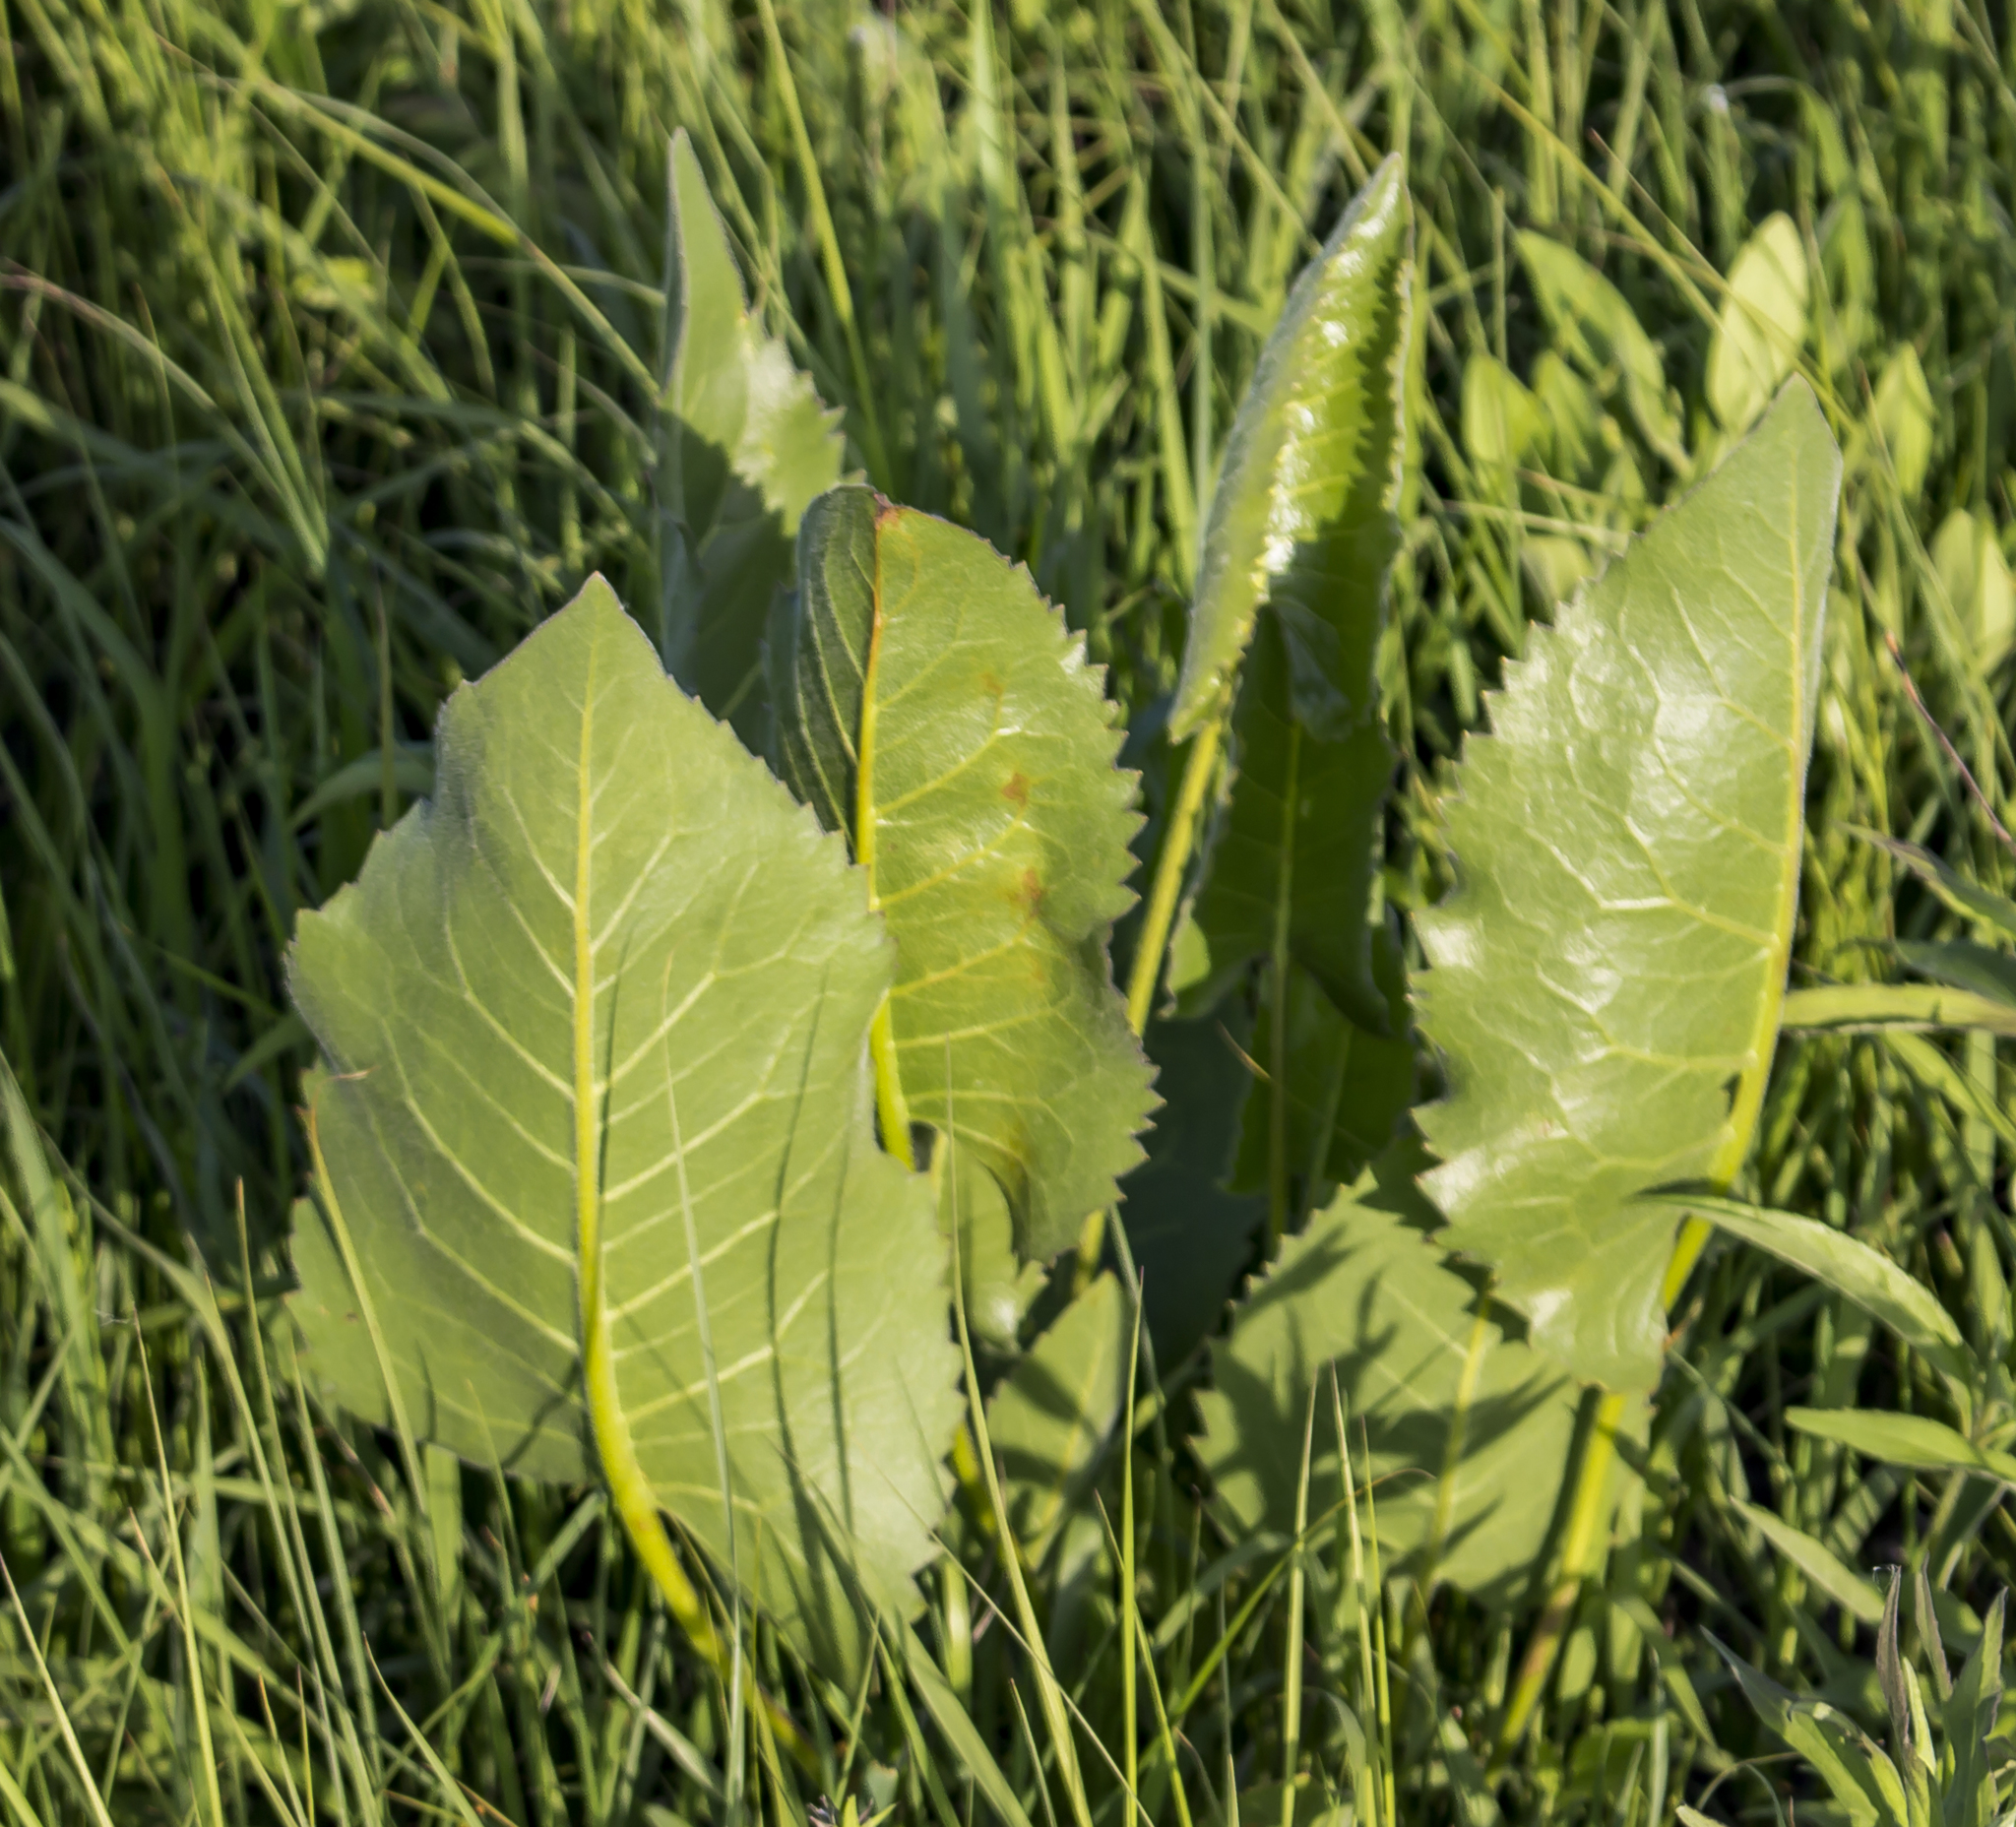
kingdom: Plantae
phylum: Tracheophyta
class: Magnoliopsida
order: Asterales
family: Asteraceae
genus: Silphium
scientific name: Silphium terebinthinaceum
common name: Basal-leaf rosinweed
